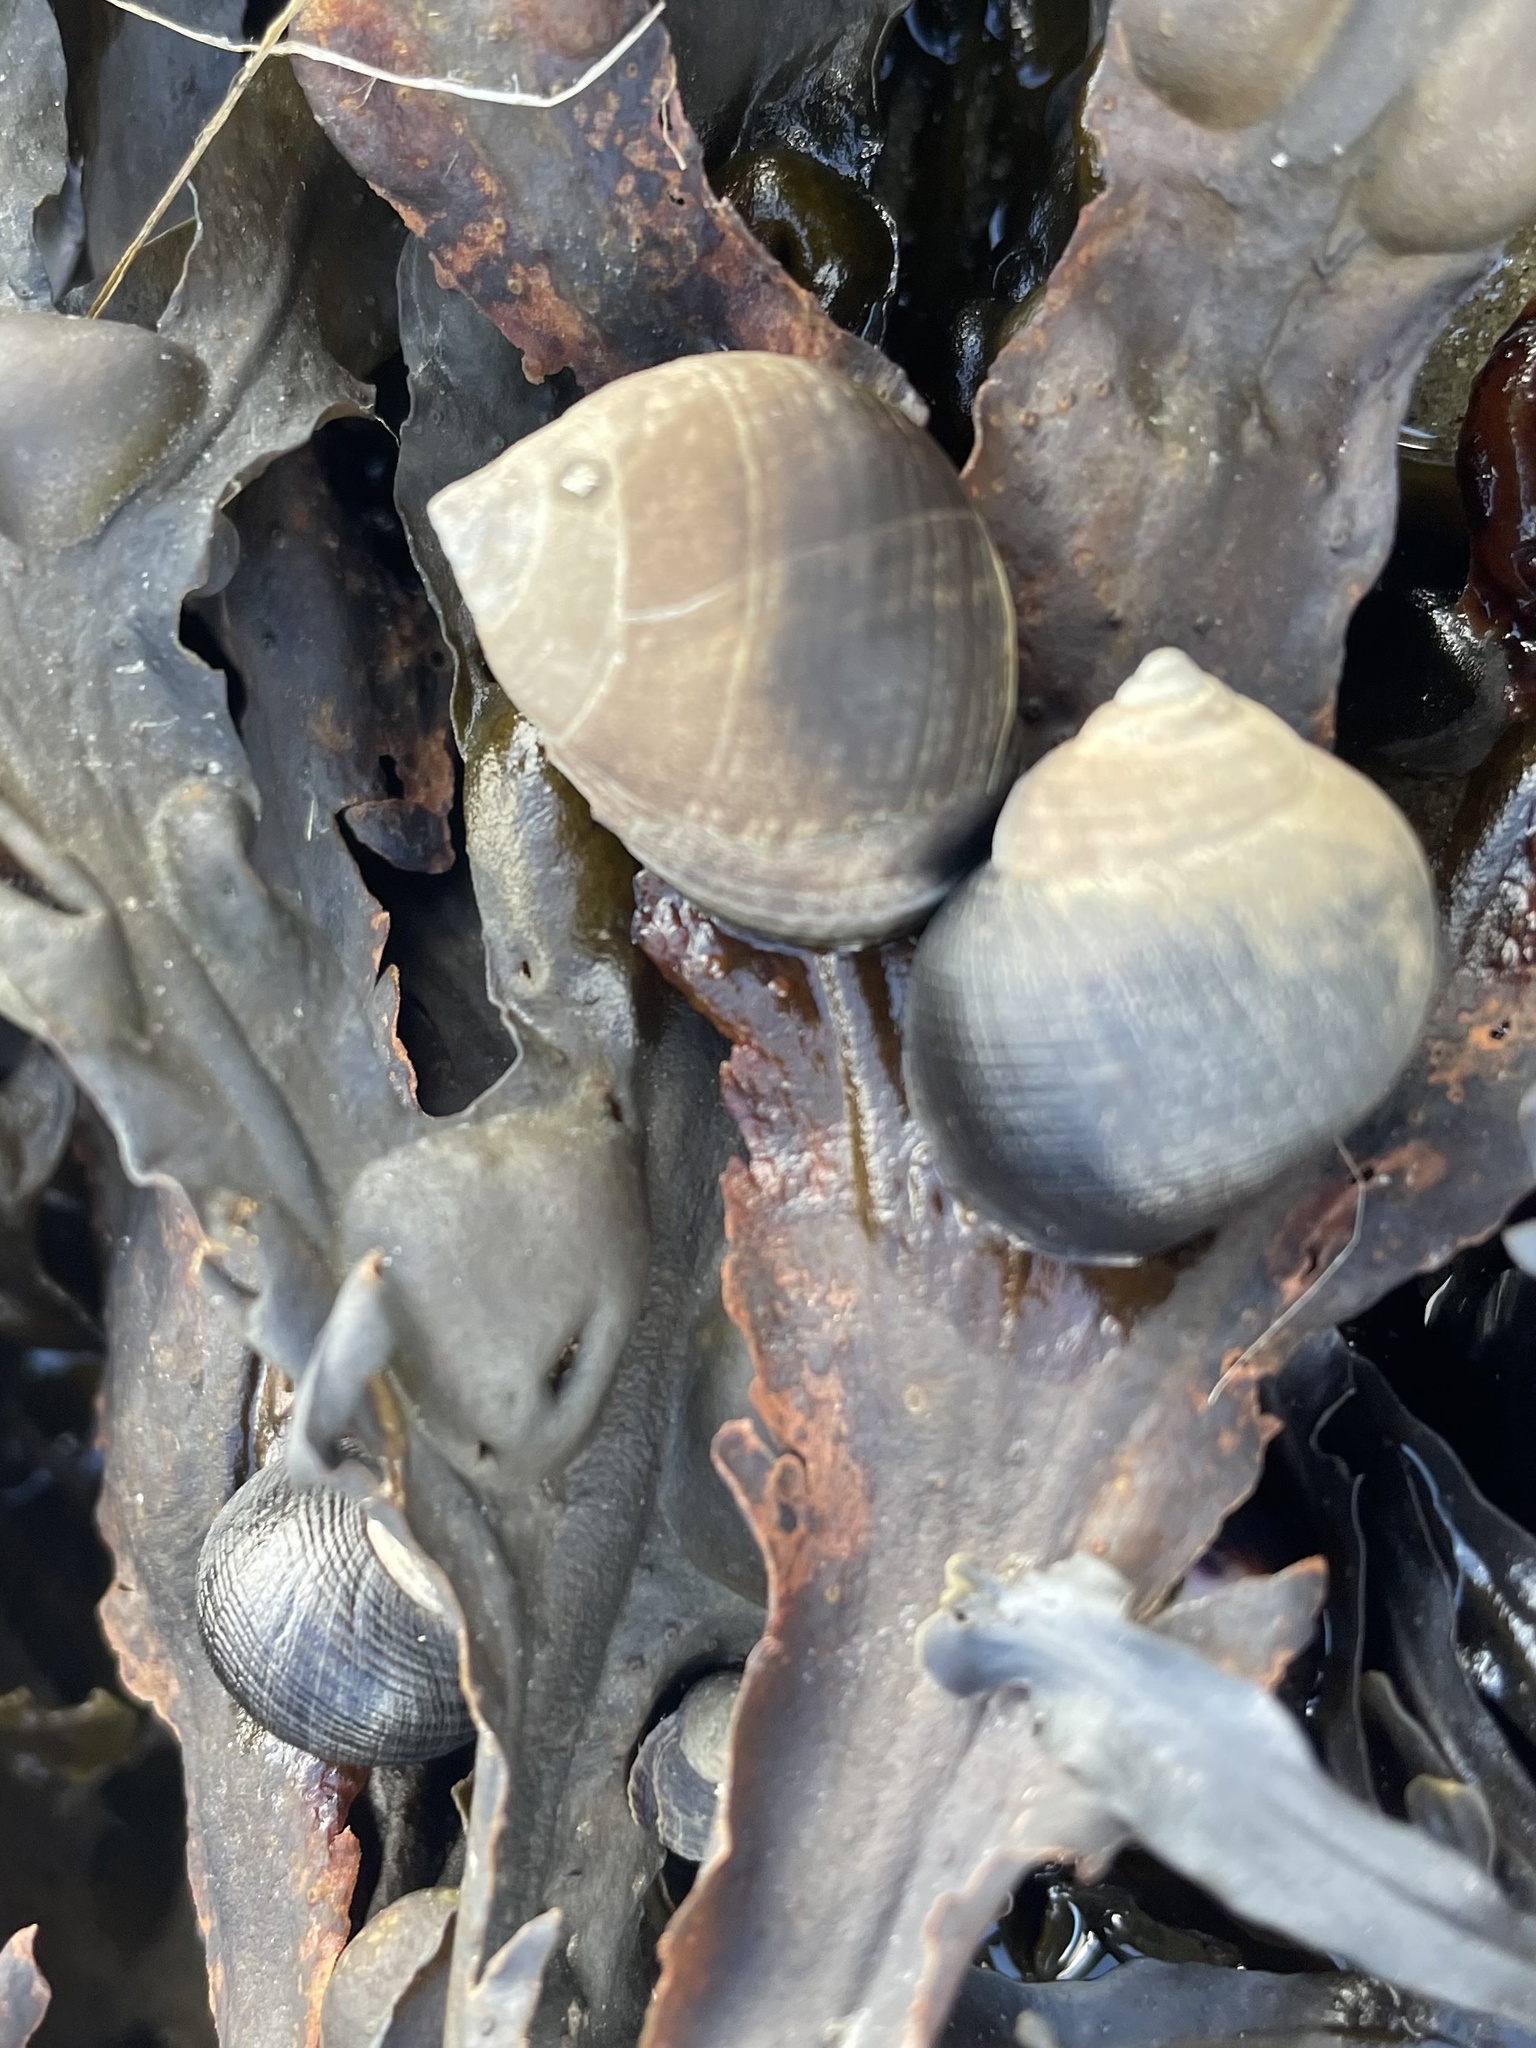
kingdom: Animalia
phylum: Mollusca
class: Gastropoda
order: Littorinimorpha
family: Littorinidae
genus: Littorina
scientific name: Littorina littorea
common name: Common periwinkle
